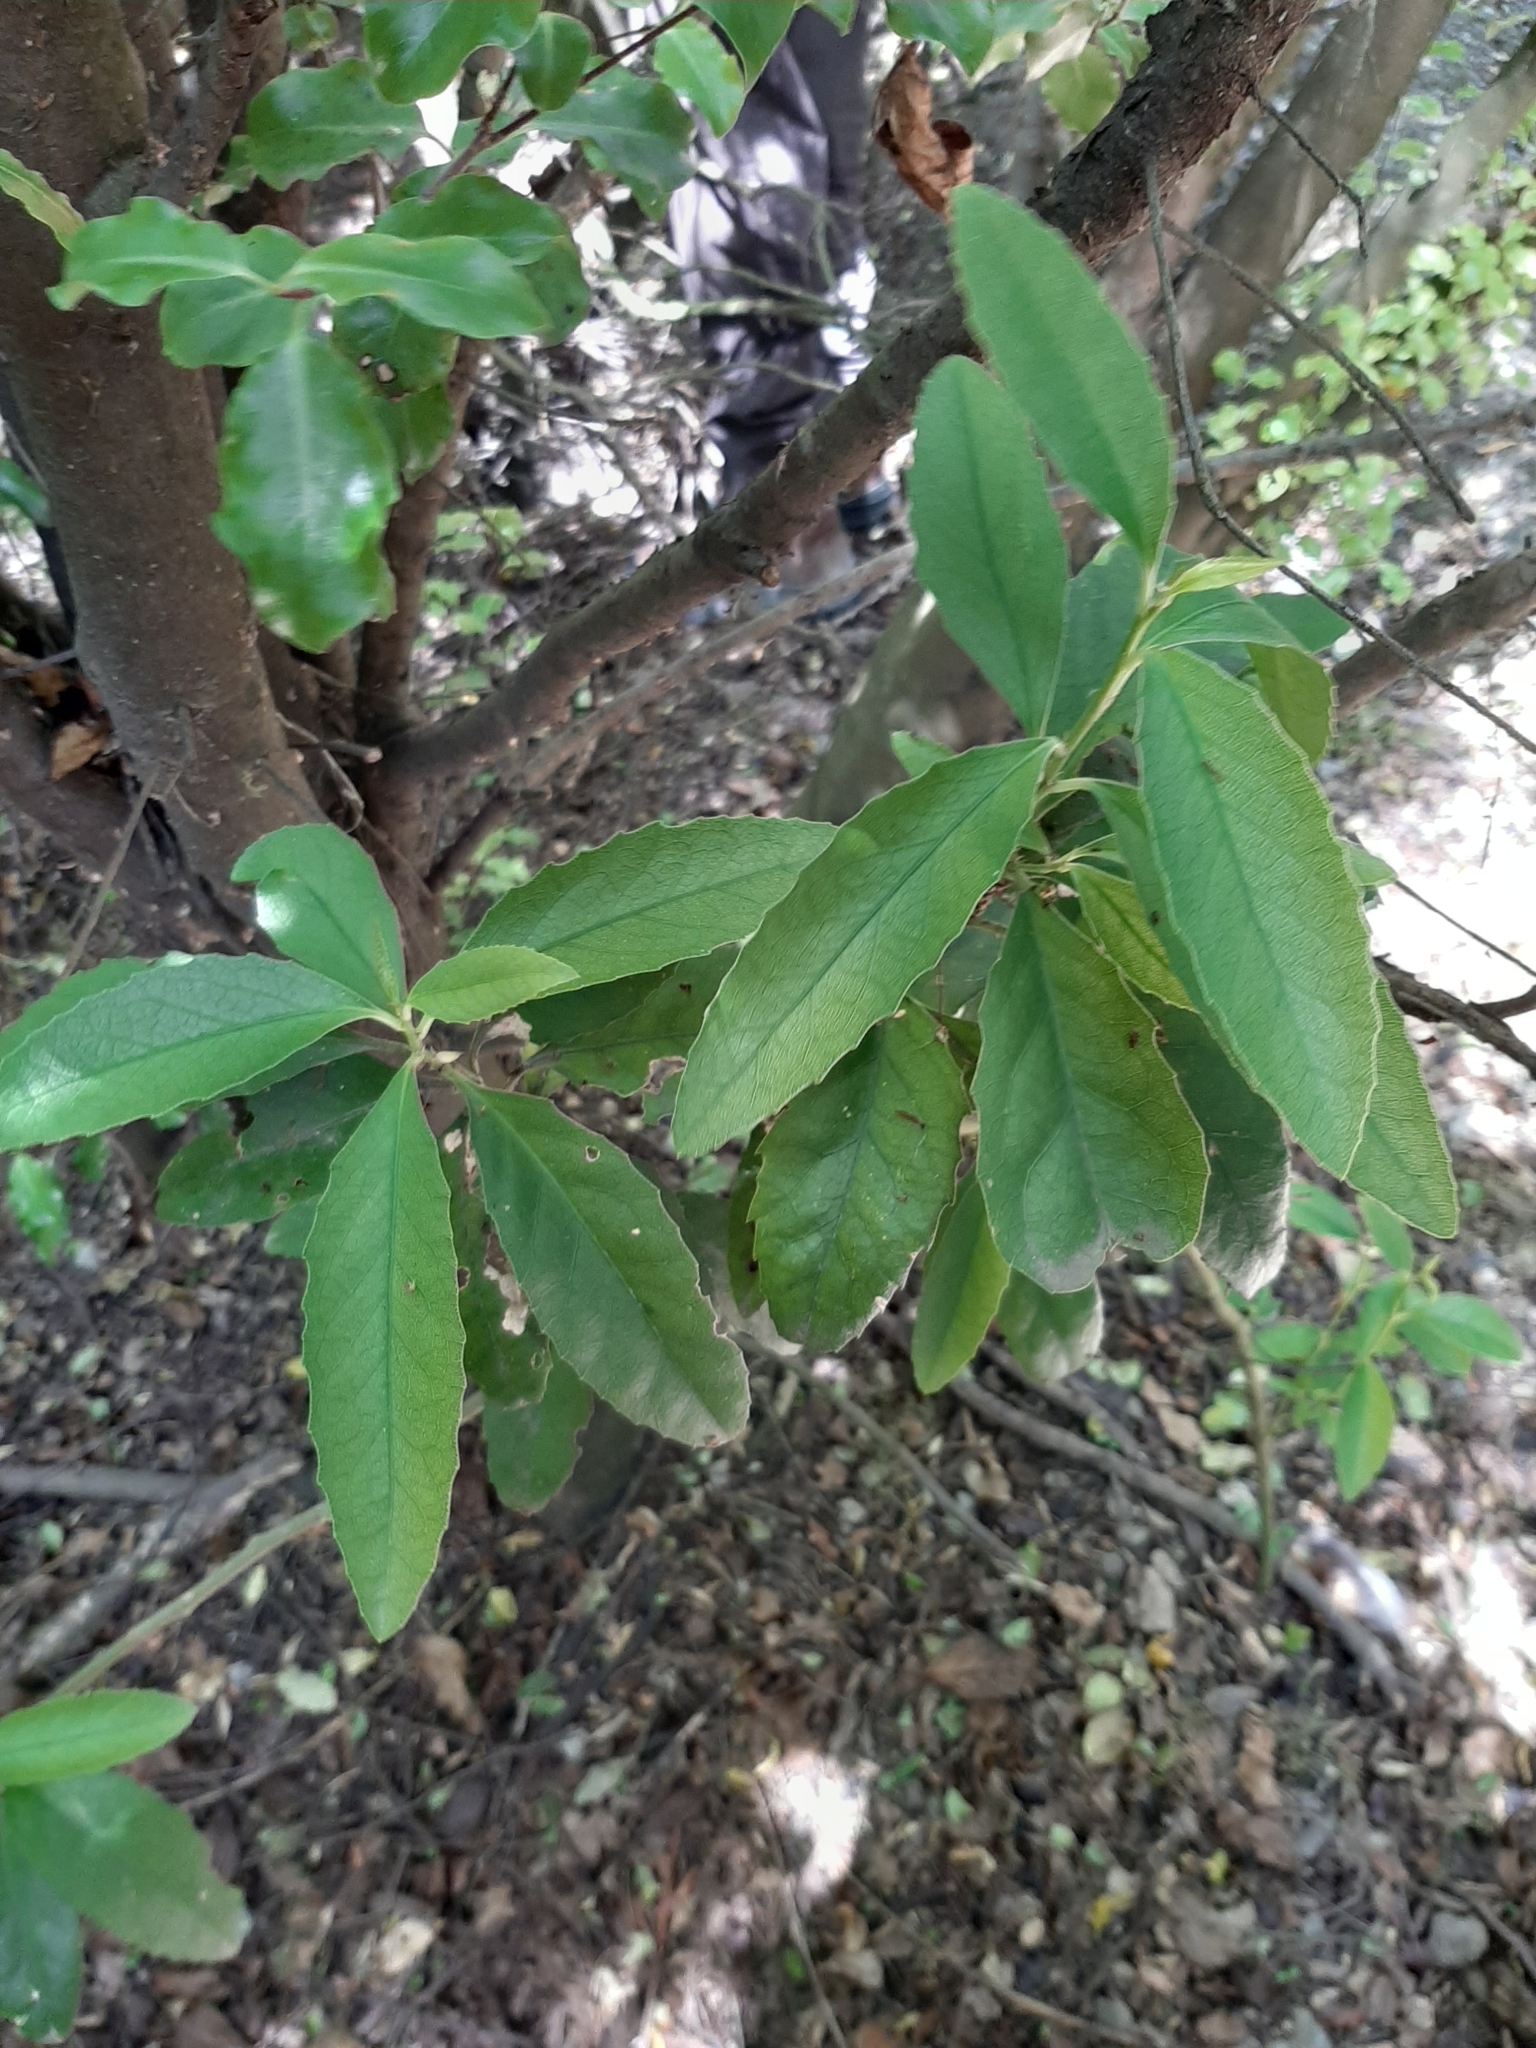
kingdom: Plantae
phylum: Tracheophyta
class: Magnoliopsida
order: Malpighiales
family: Violaceae
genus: Melicytus
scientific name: Melicytus ramiflorus
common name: Mahoe
